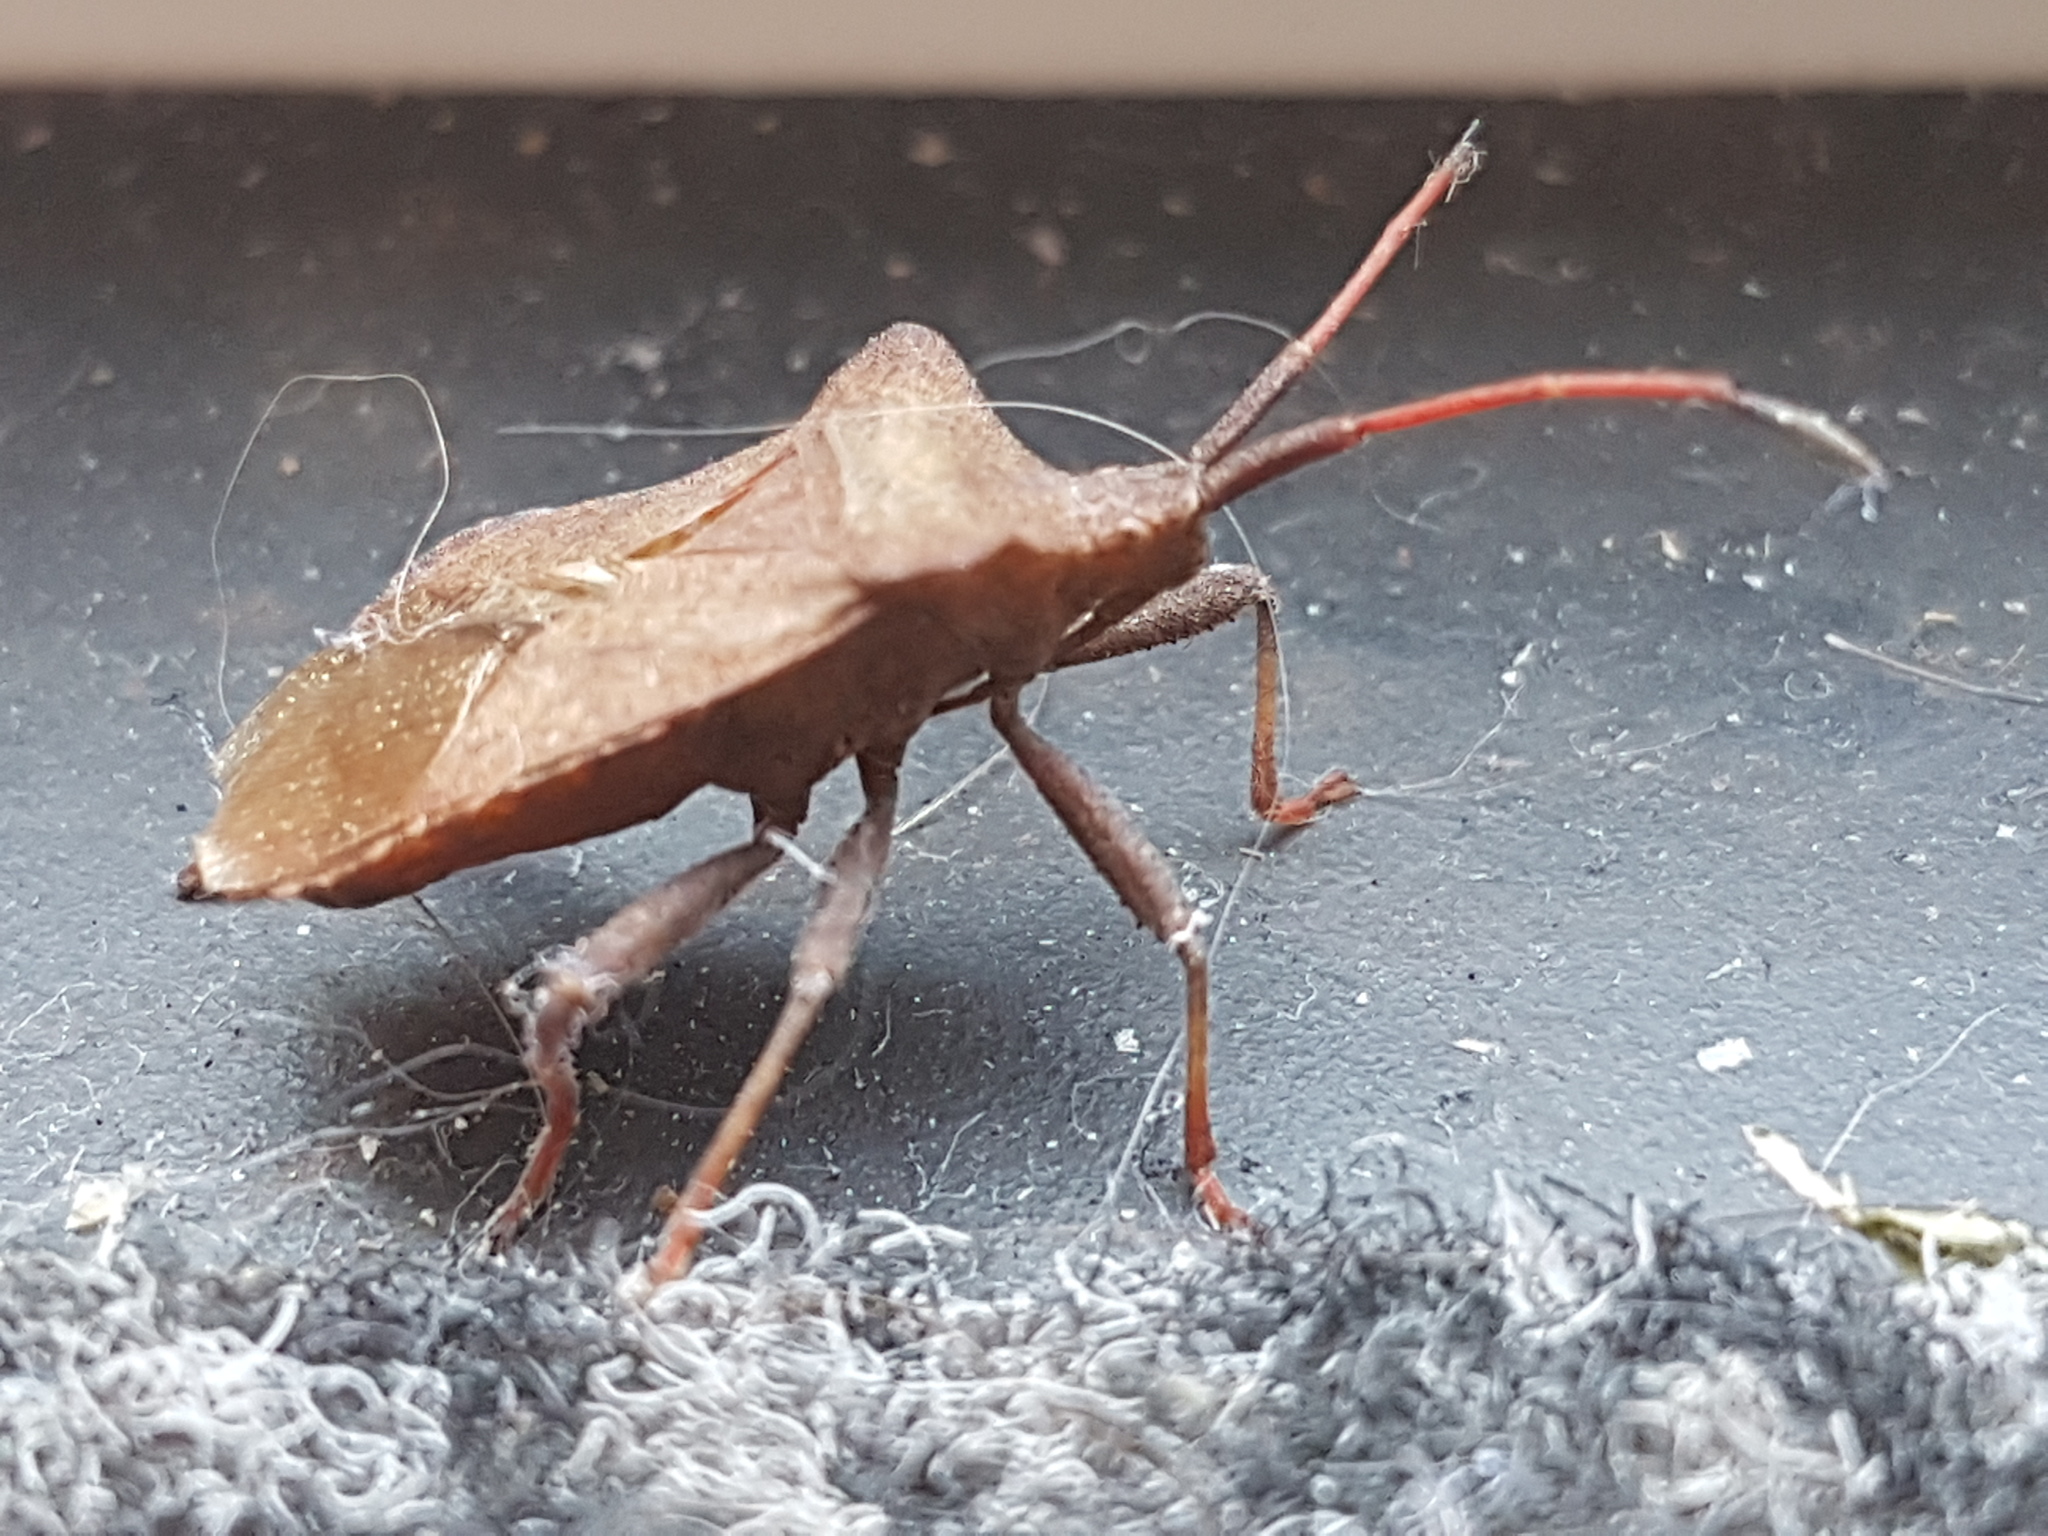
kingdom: Animalia
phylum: Arthropoda
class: Insecta
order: Hemiptera
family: Coreidae
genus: Coreus
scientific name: Coreus marginatus
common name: Dock bug
